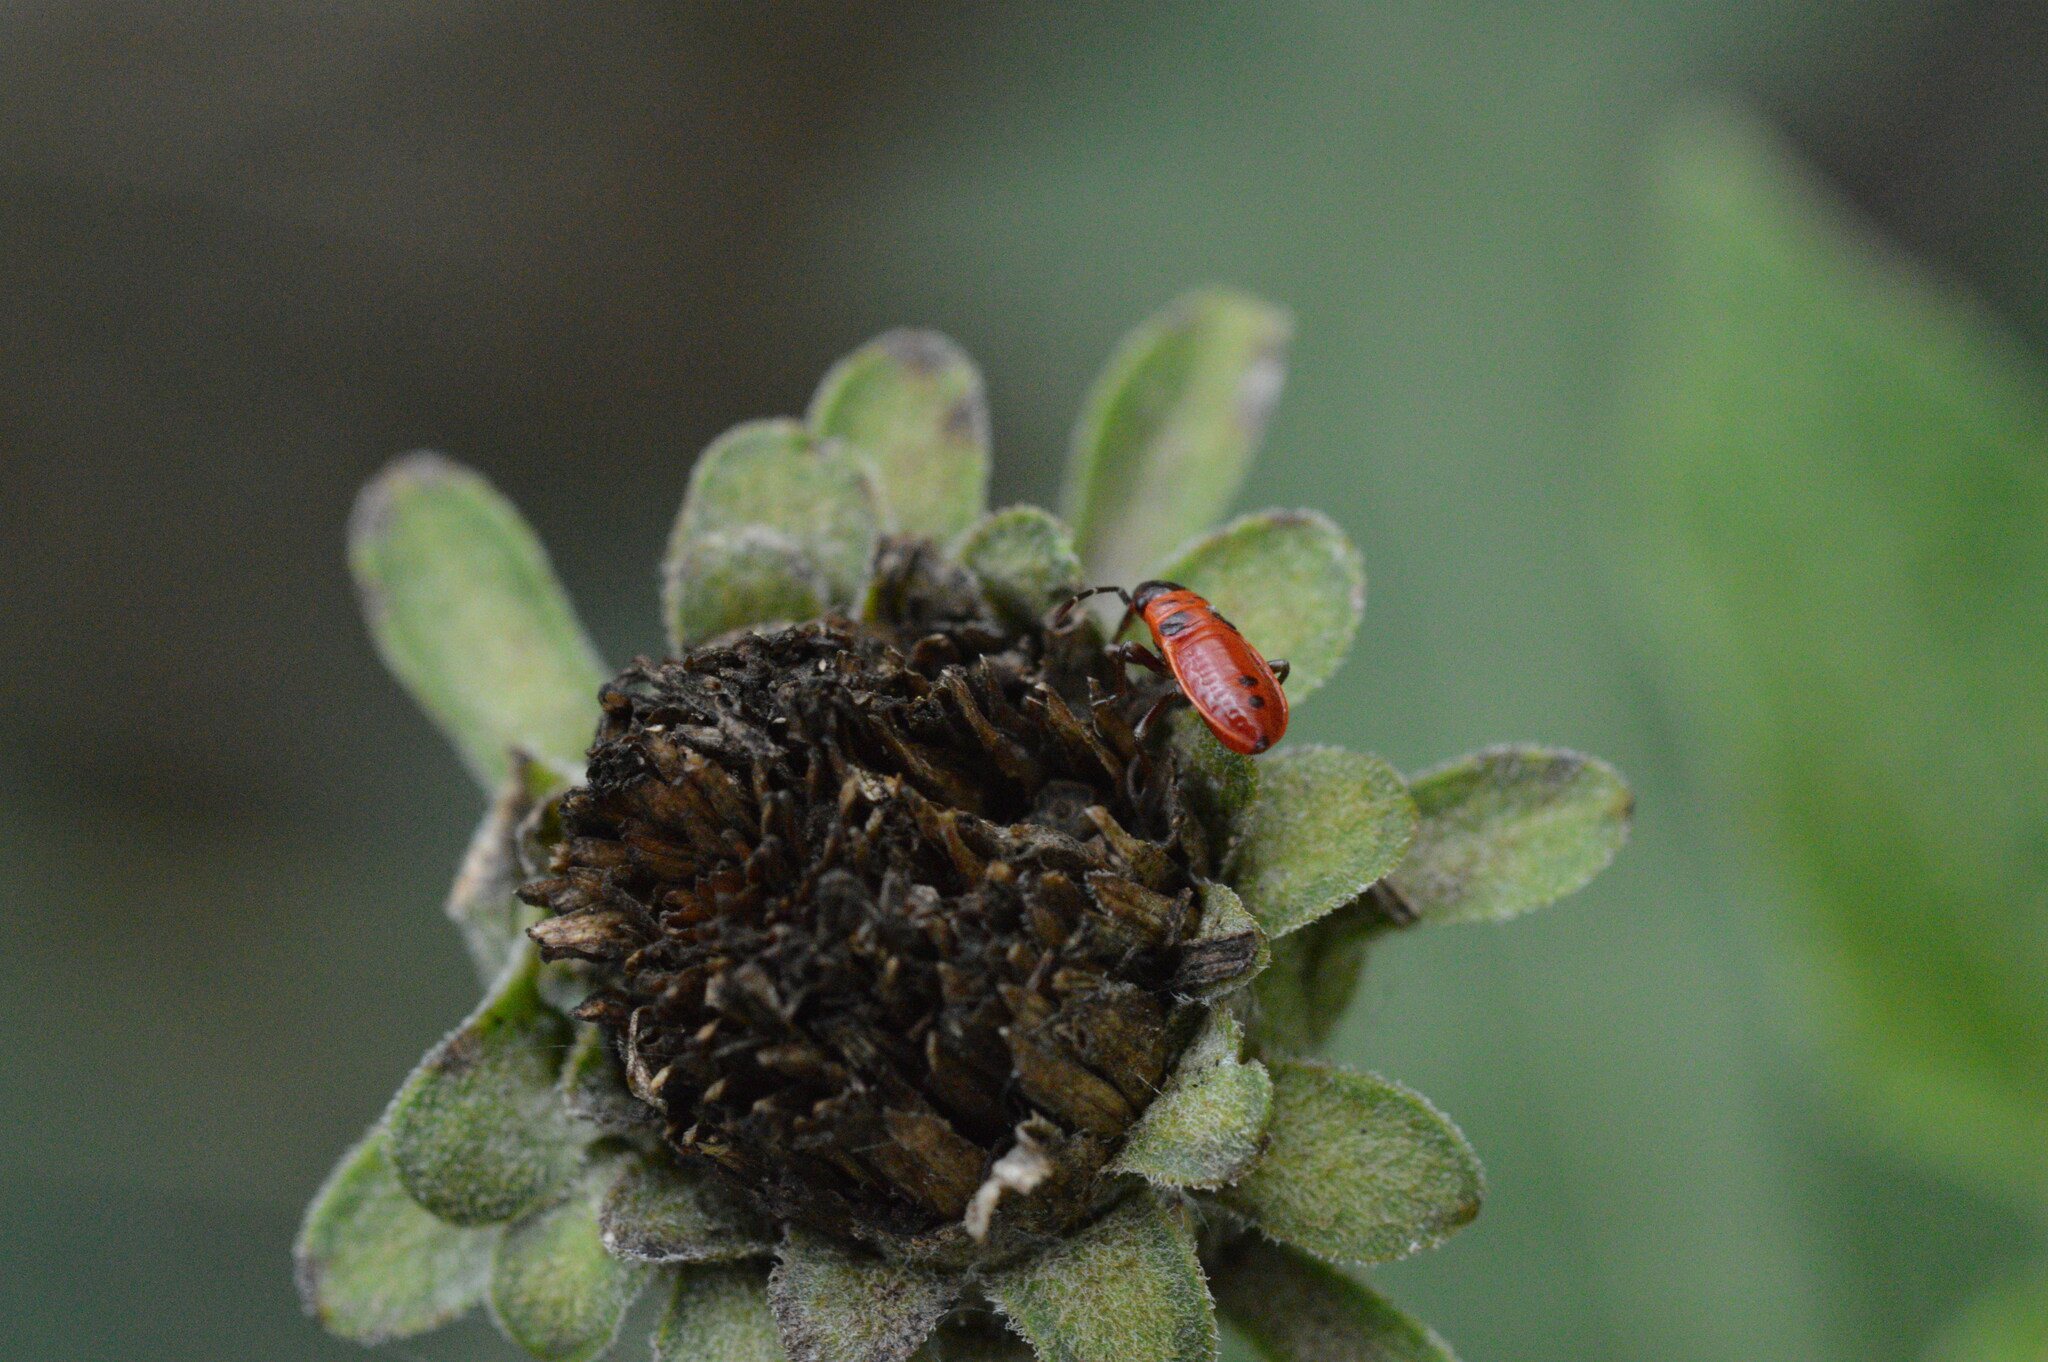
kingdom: Animalia
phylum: Arthropoda
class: Insecta
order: Hemiptera
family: Lygaeidae
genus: Lygaeus
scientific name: Lygaeus turcicus
